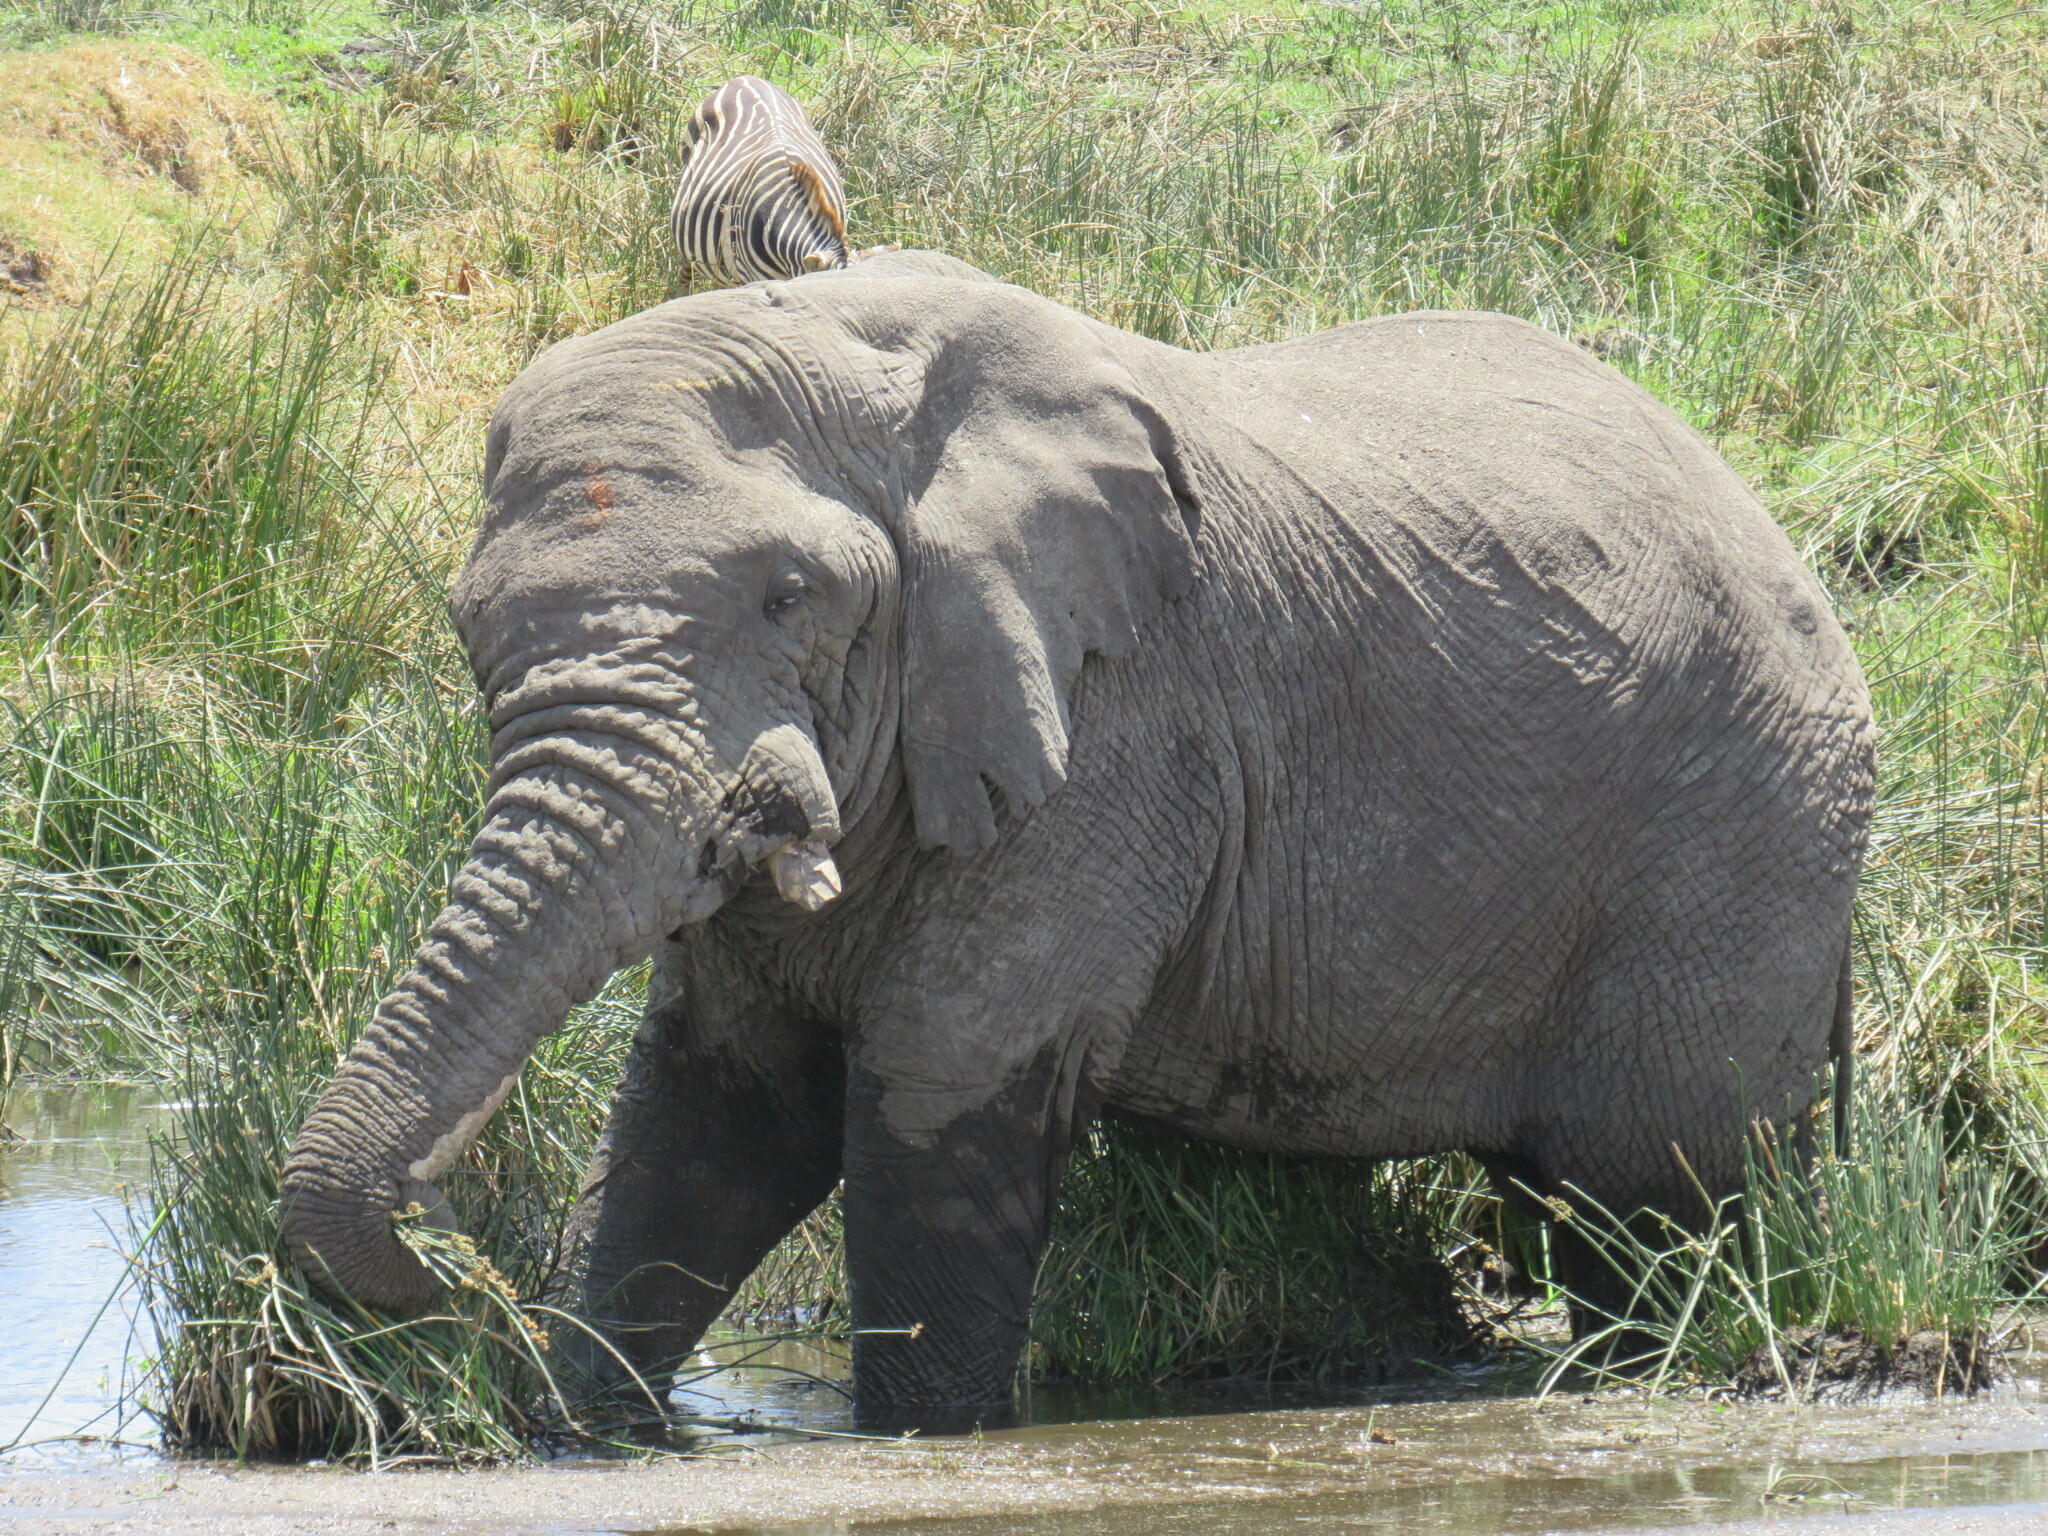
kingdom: Animalia
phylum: Chordata
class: Mammalia
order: Proboscidea
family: Elephantidae
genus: Loxodonta
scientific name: Loxodonta africana
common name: African elephant
